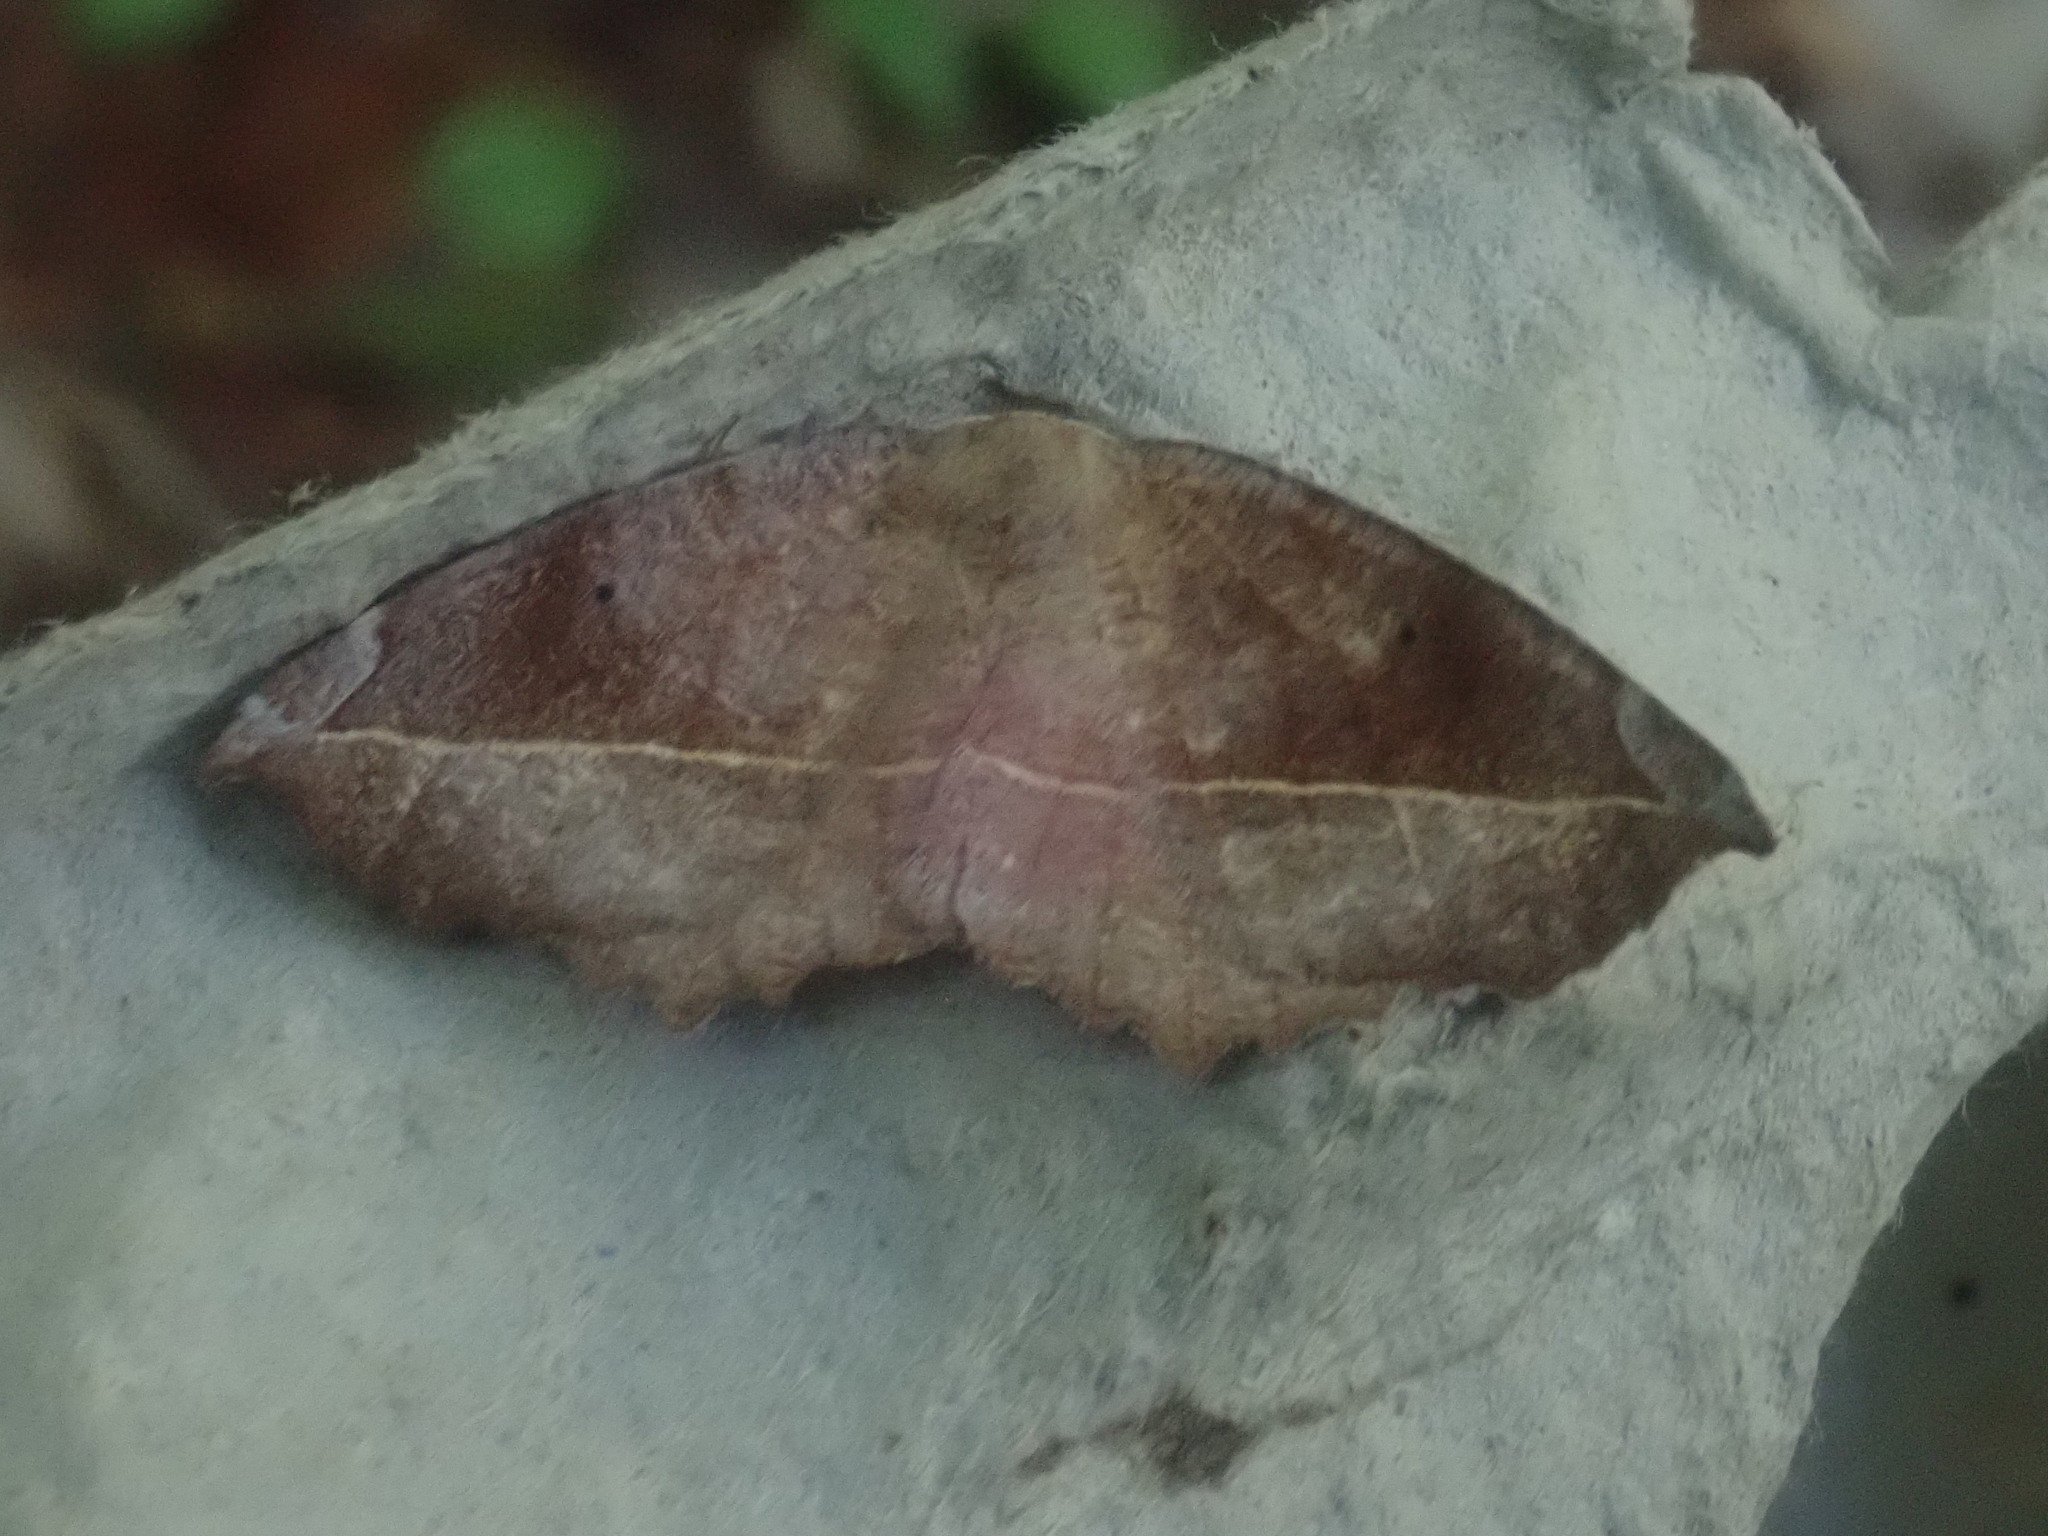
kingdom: Animalia
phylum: Arthropoda
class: Insecta
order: Lepidoptera
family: Geometridae
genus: Eutrapela
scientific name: Eutrapela clemataria
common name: Curved-toothed geometer
